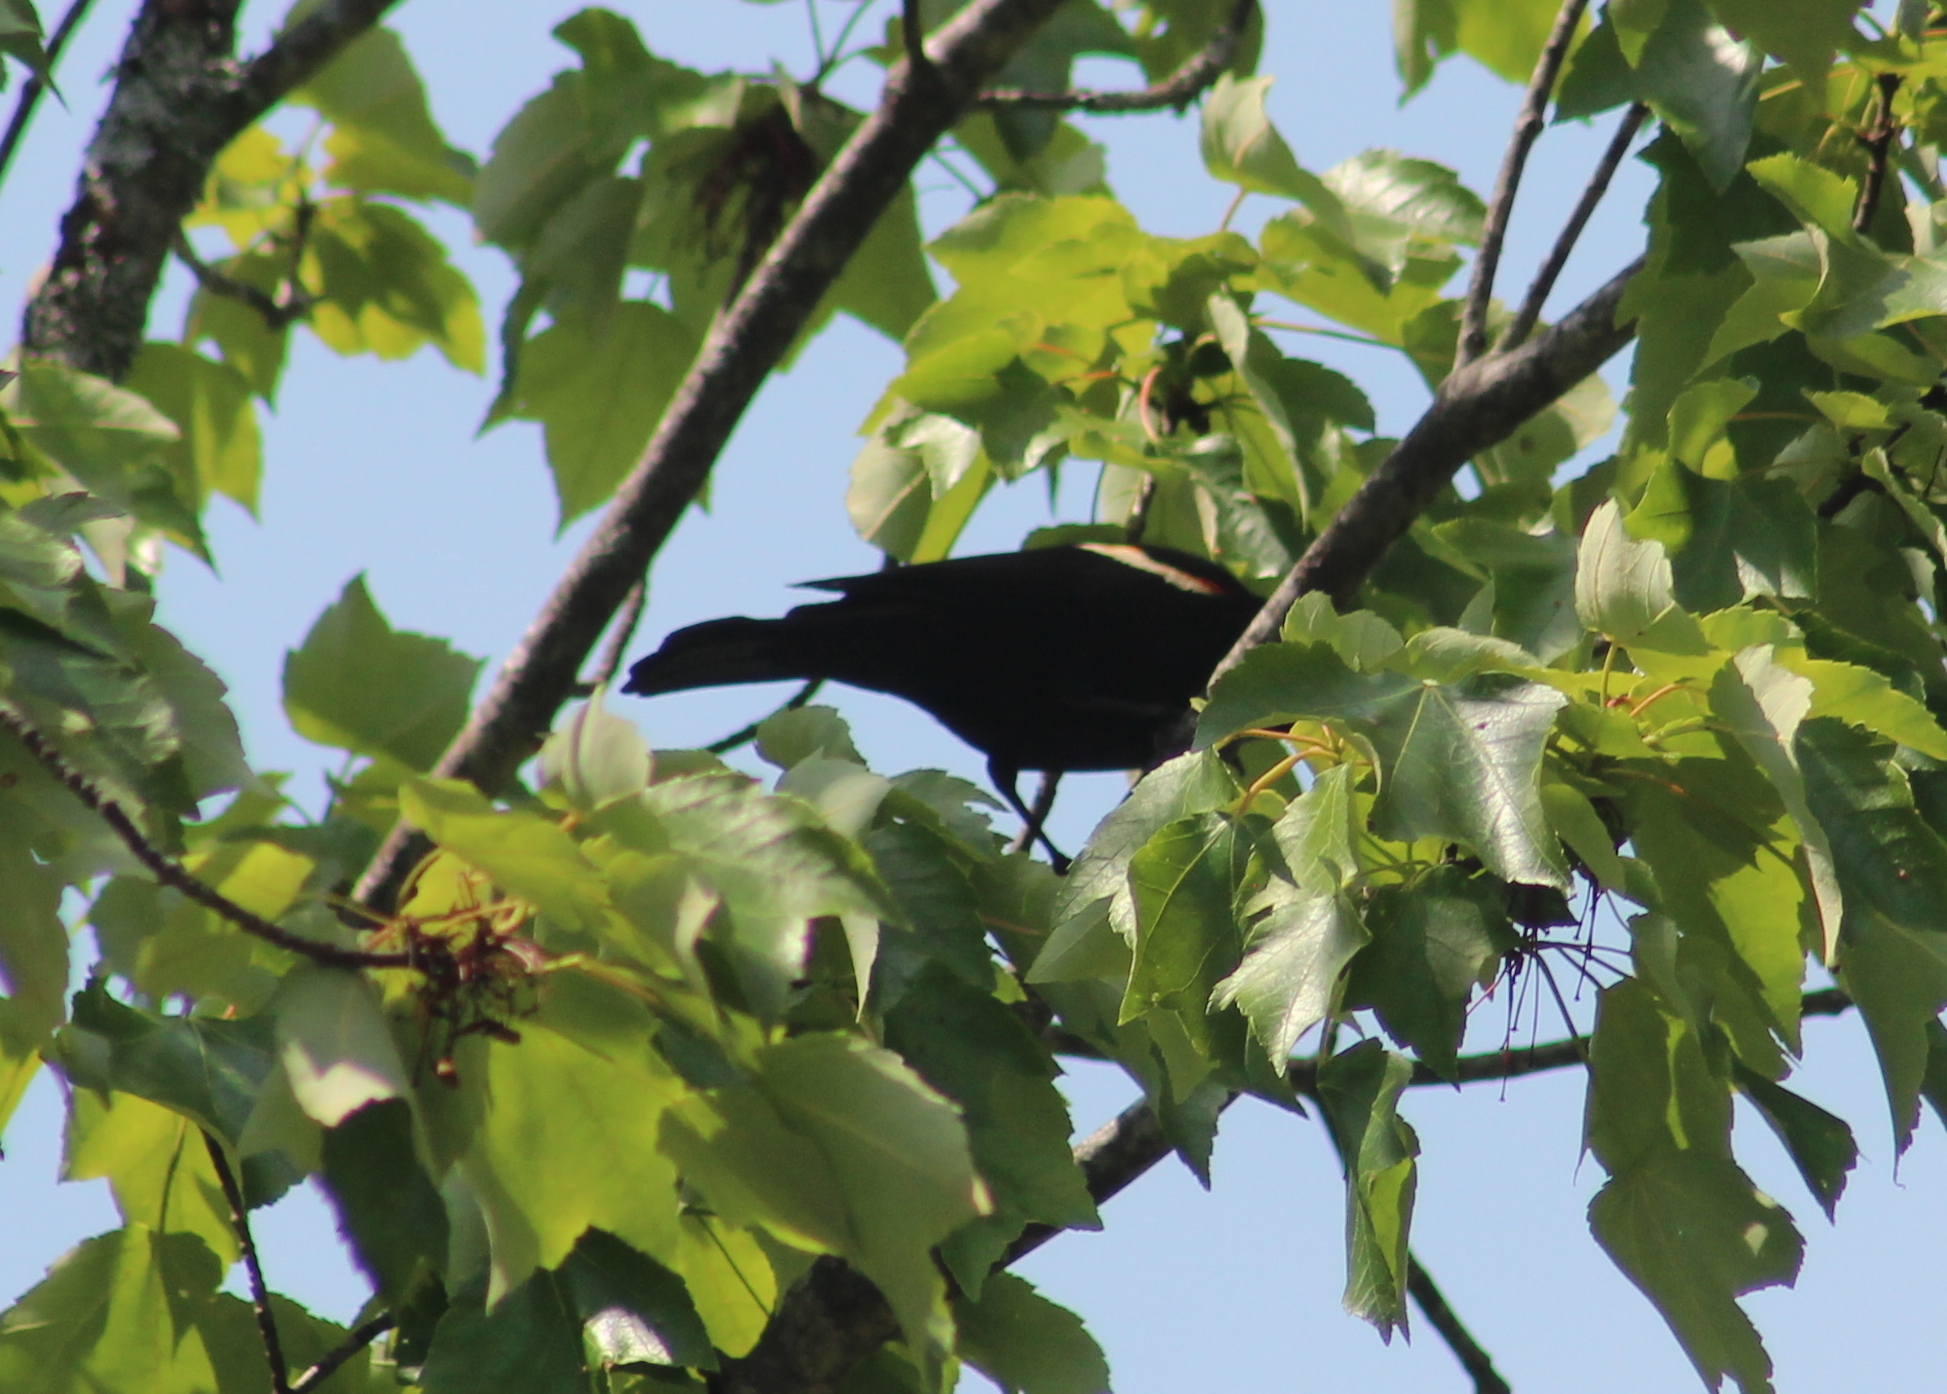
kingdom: Animalia
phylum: Chordata
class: Aves
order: Passeriformes
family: Icteridae
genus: Agelaius
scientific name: Agelaius phoeniceus
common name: Red-winged blackbird
